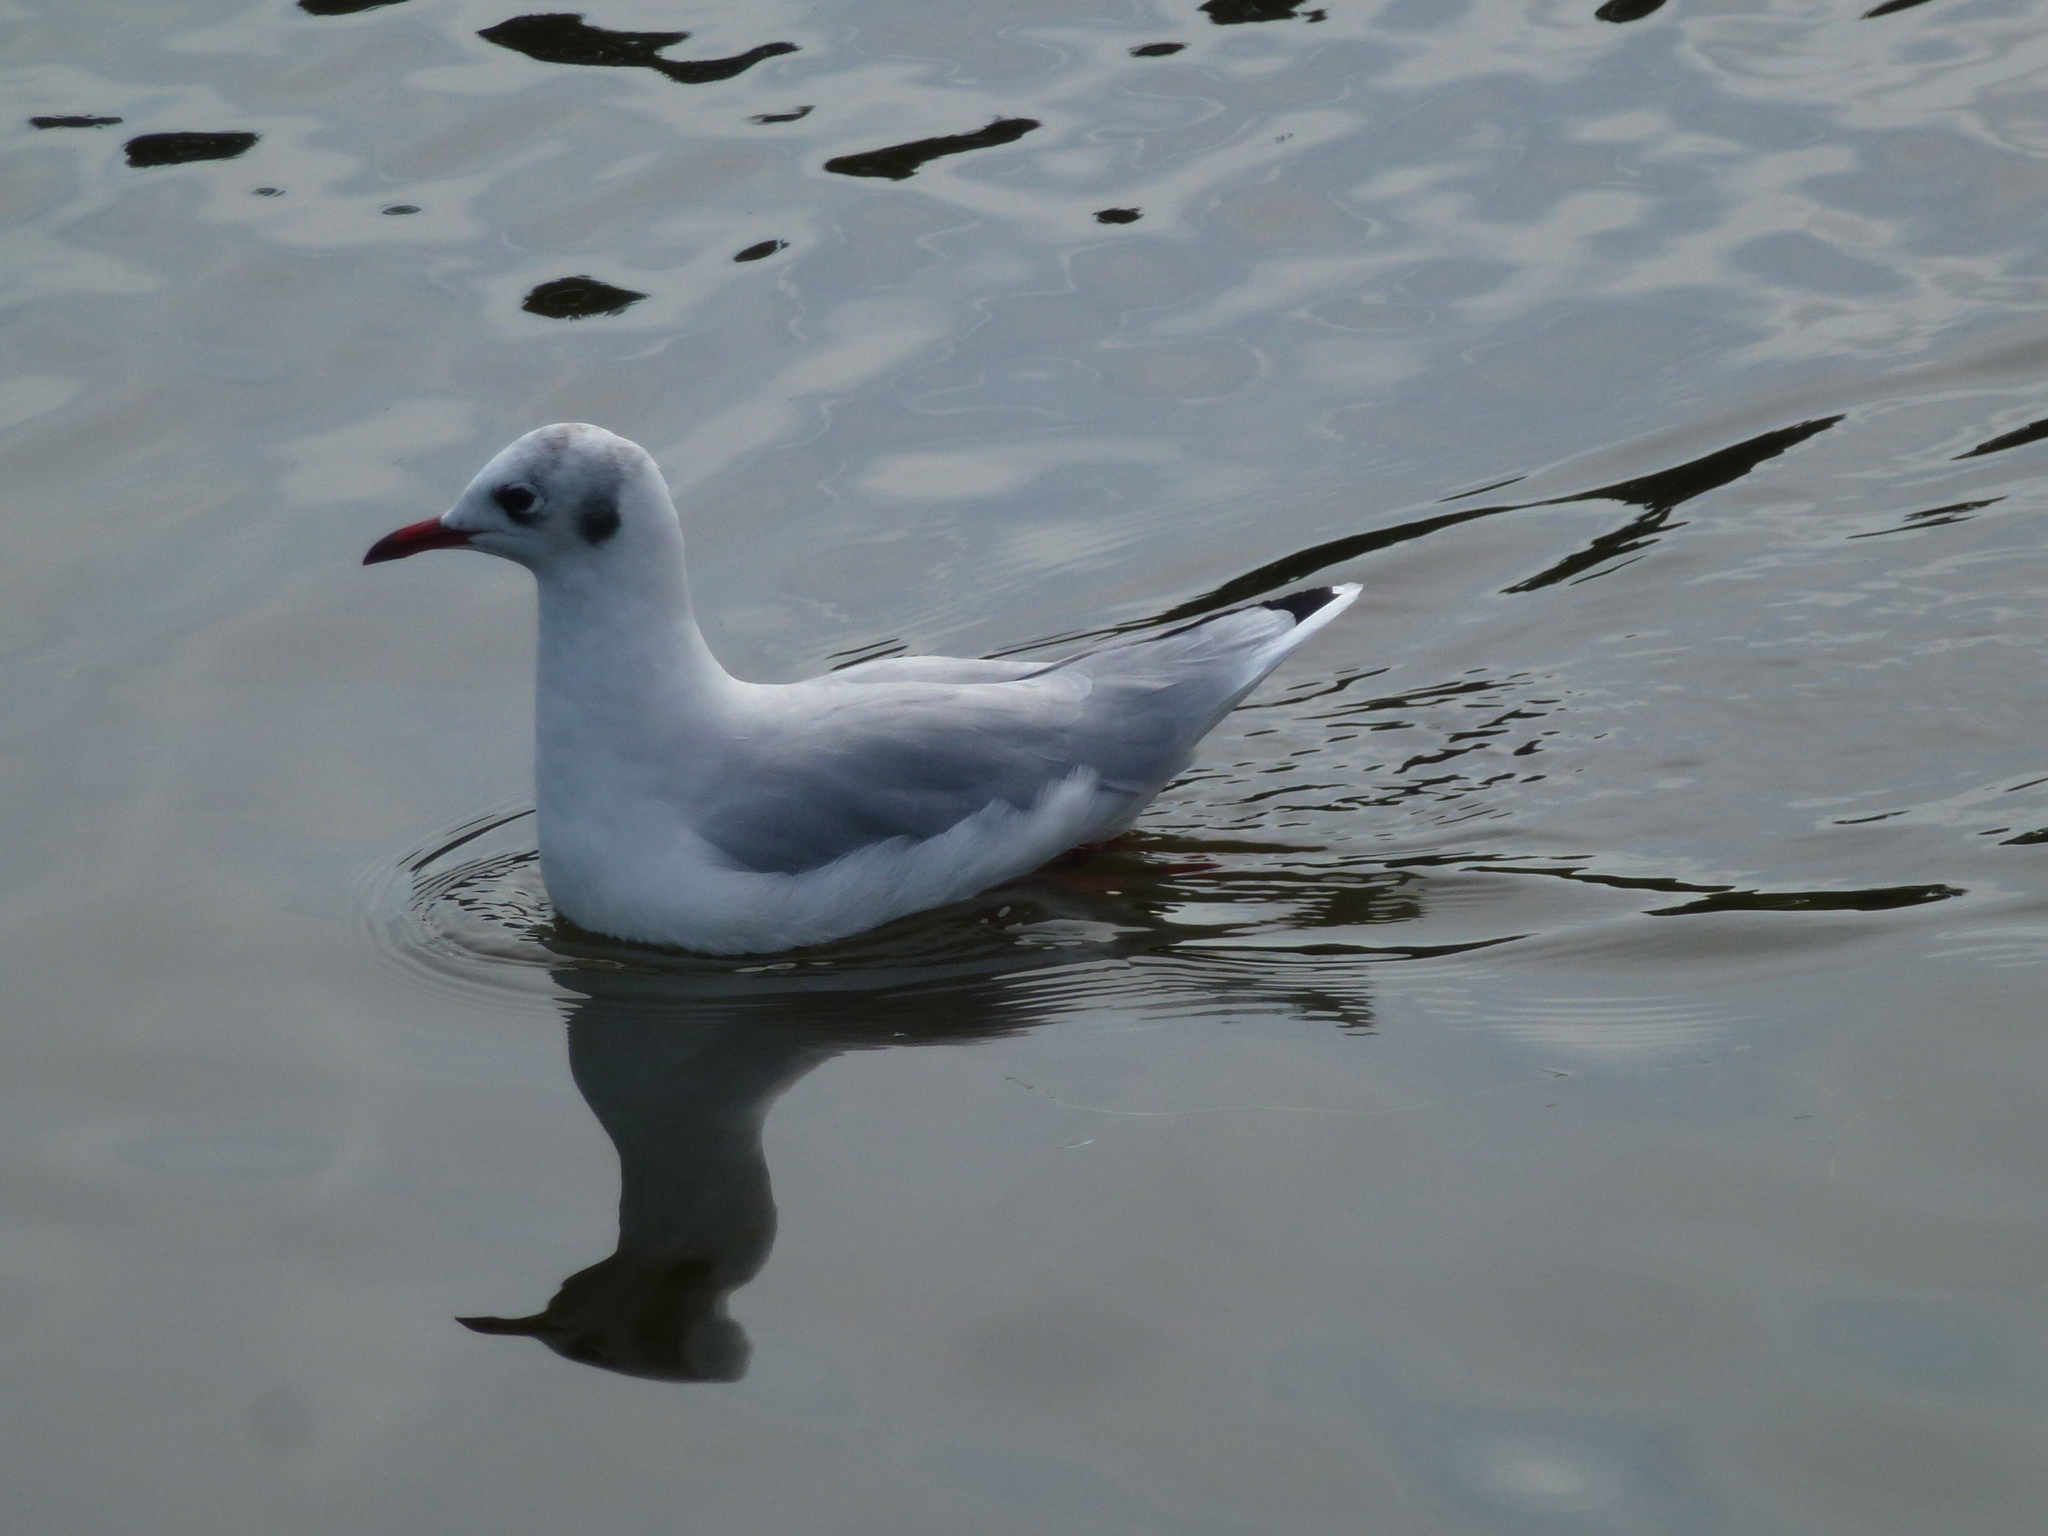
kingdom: Animalia
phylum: Chordata
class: Aves
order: Charadriiformes
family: Laridae
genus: Chroicocephalus
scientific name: Chroicocephalus ridibundus
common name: Black-headed gull
